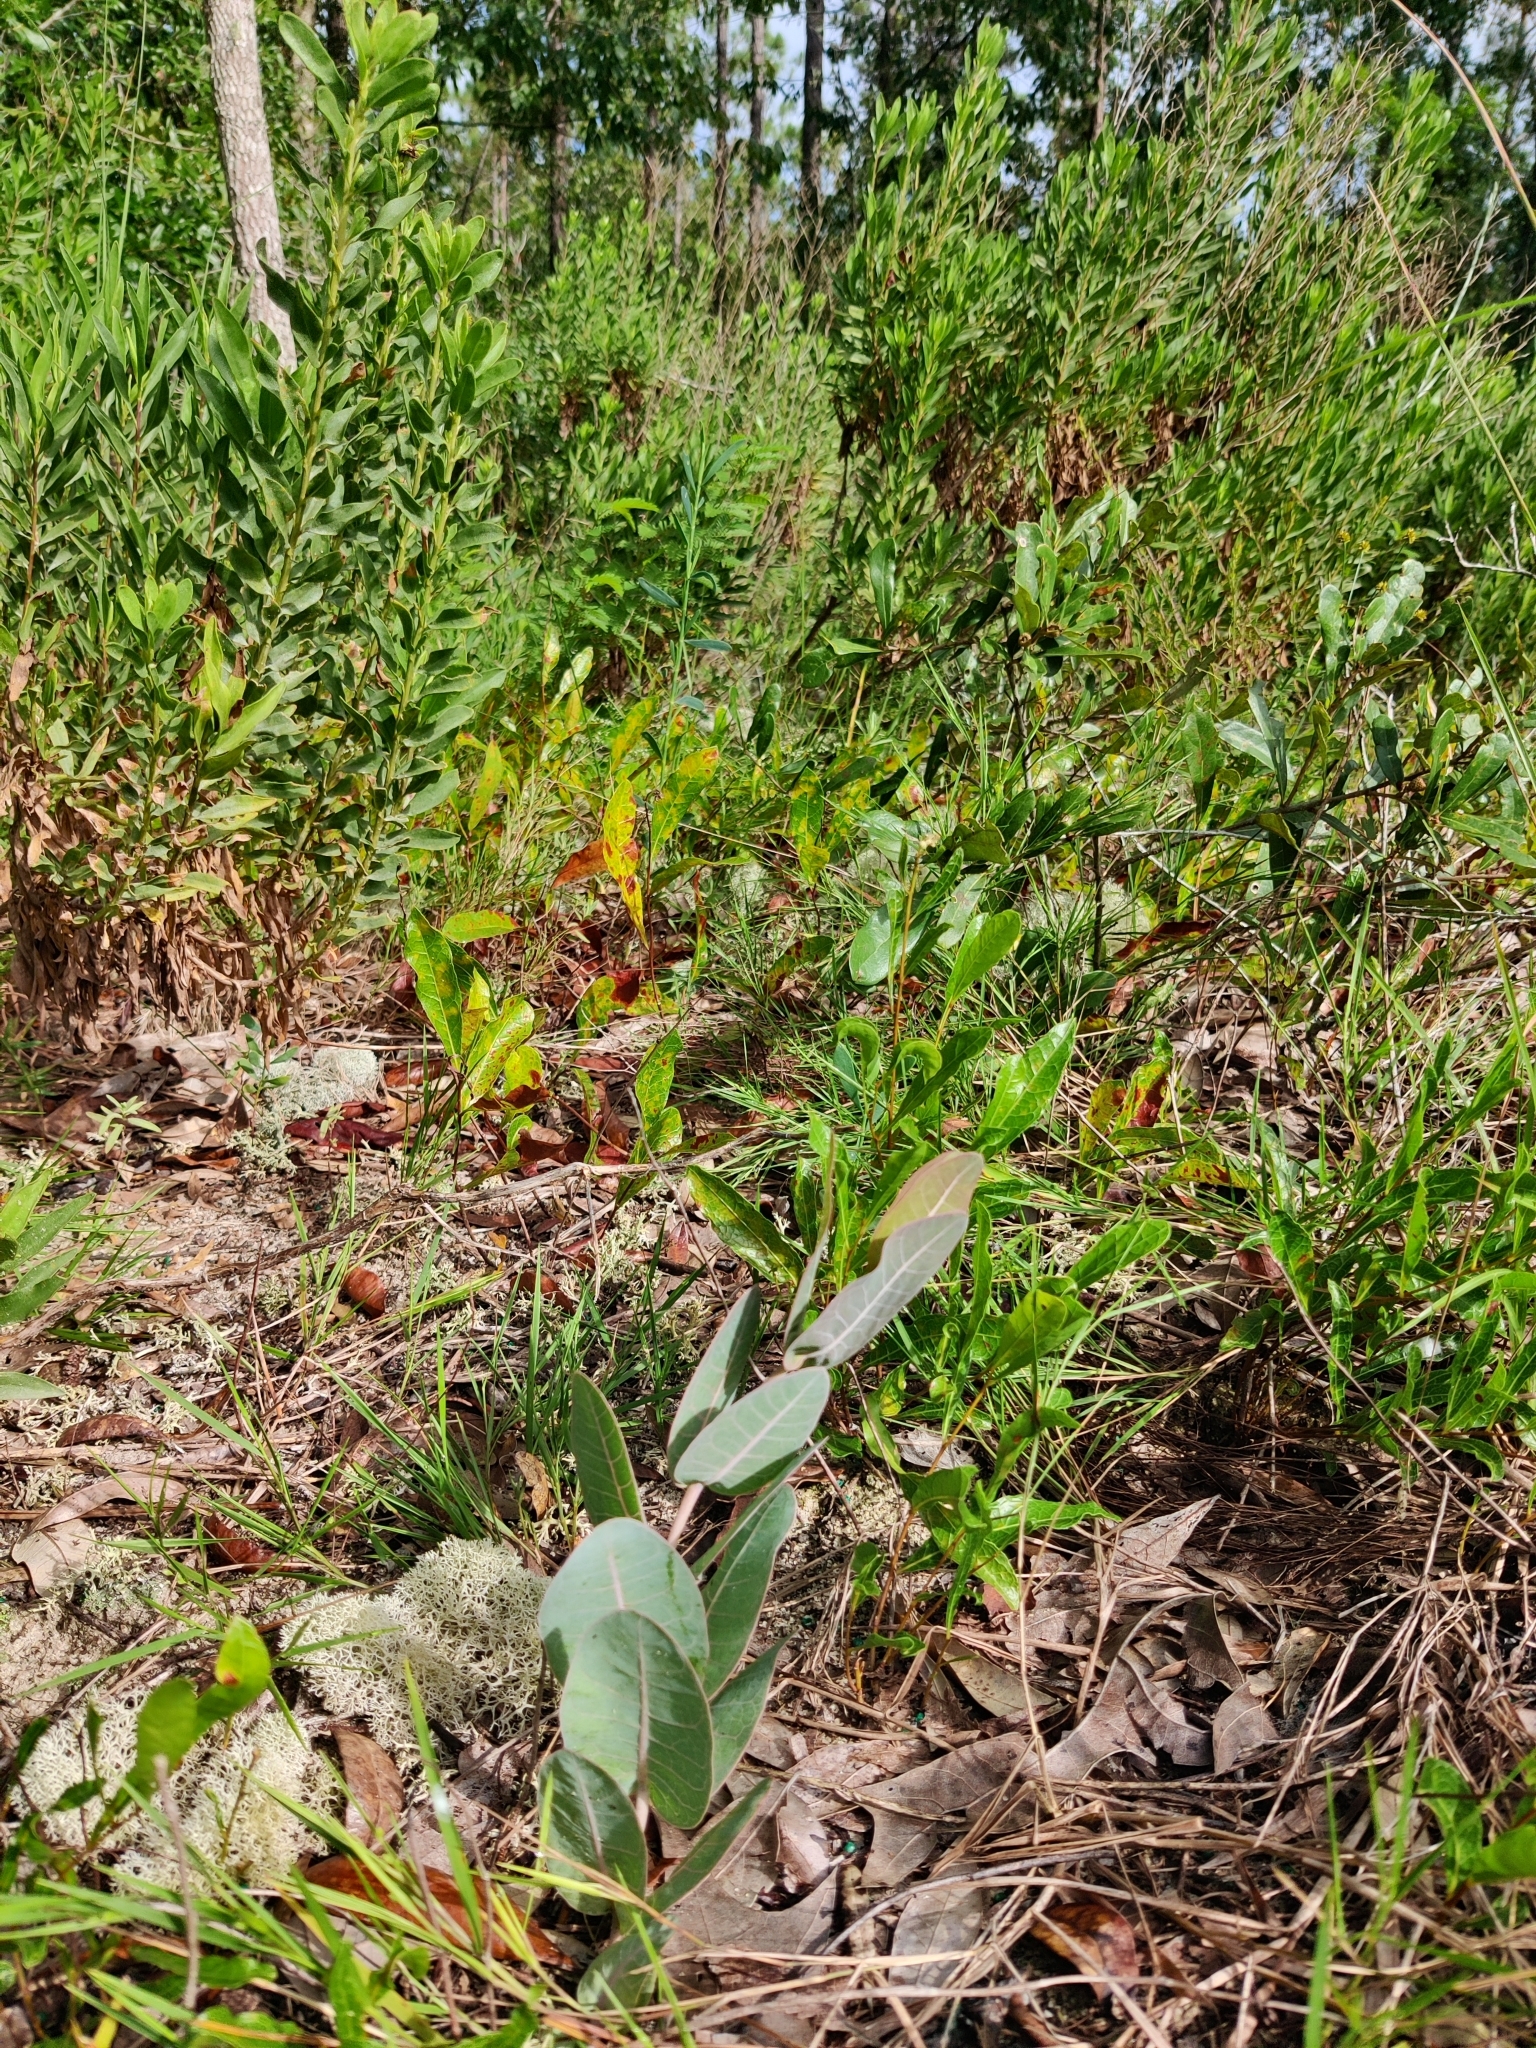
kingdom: Plantae
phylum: Tracheophyta
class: Magnoliopsida
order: Gentianales
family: Apocynaceae
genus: Asclepias
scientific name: Asclepias humistrata
